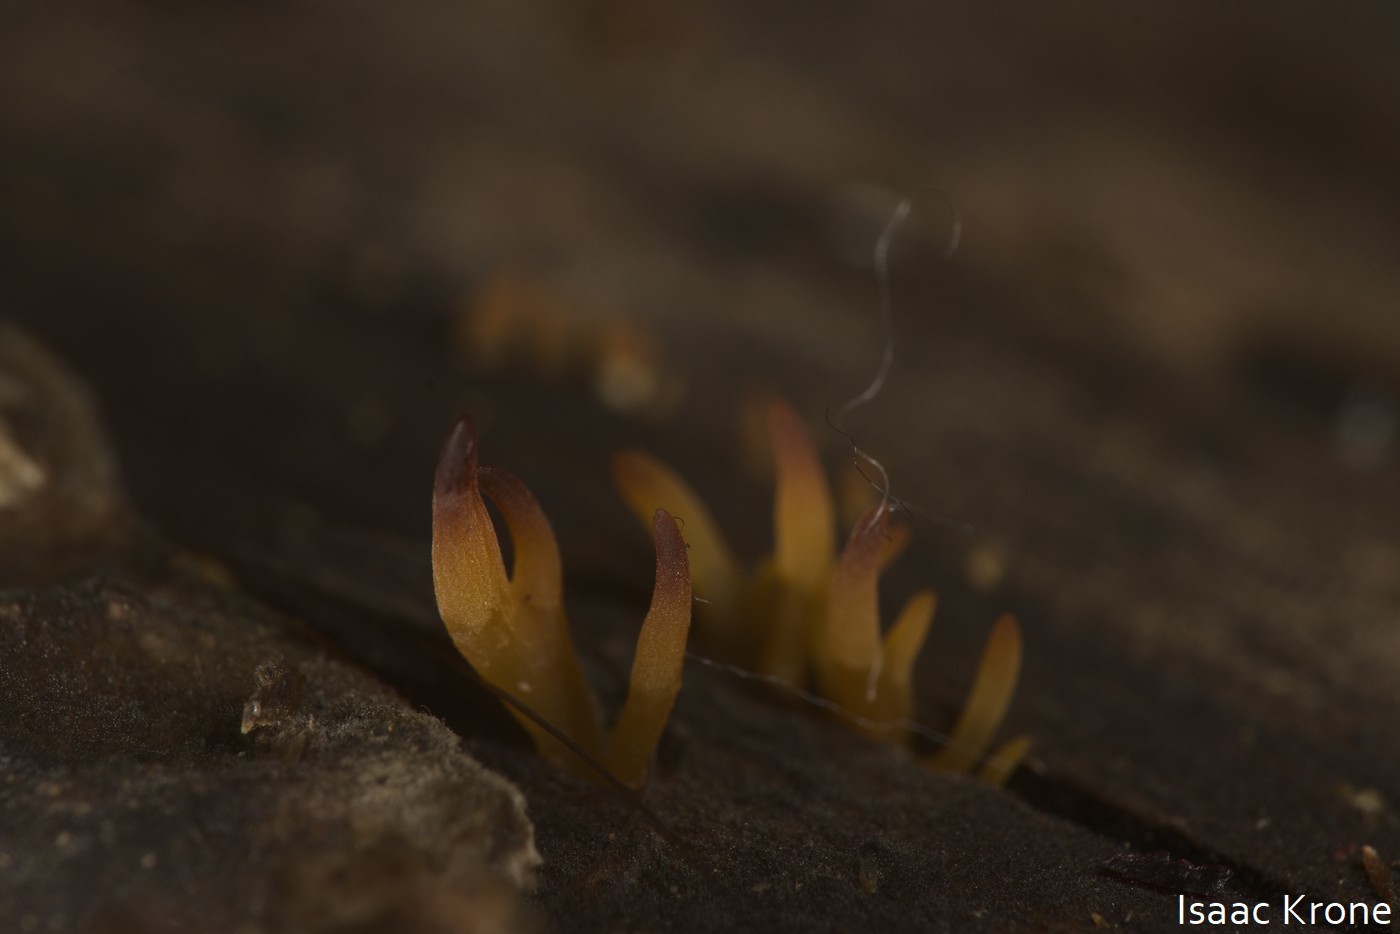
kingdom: Fungi
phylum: Basidiomycota
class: Dacrymycetes
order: Dacrymycetales
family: Dacrymycetaceae
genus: Calocera
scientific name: Calocera cornea
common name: Small stagshorn
